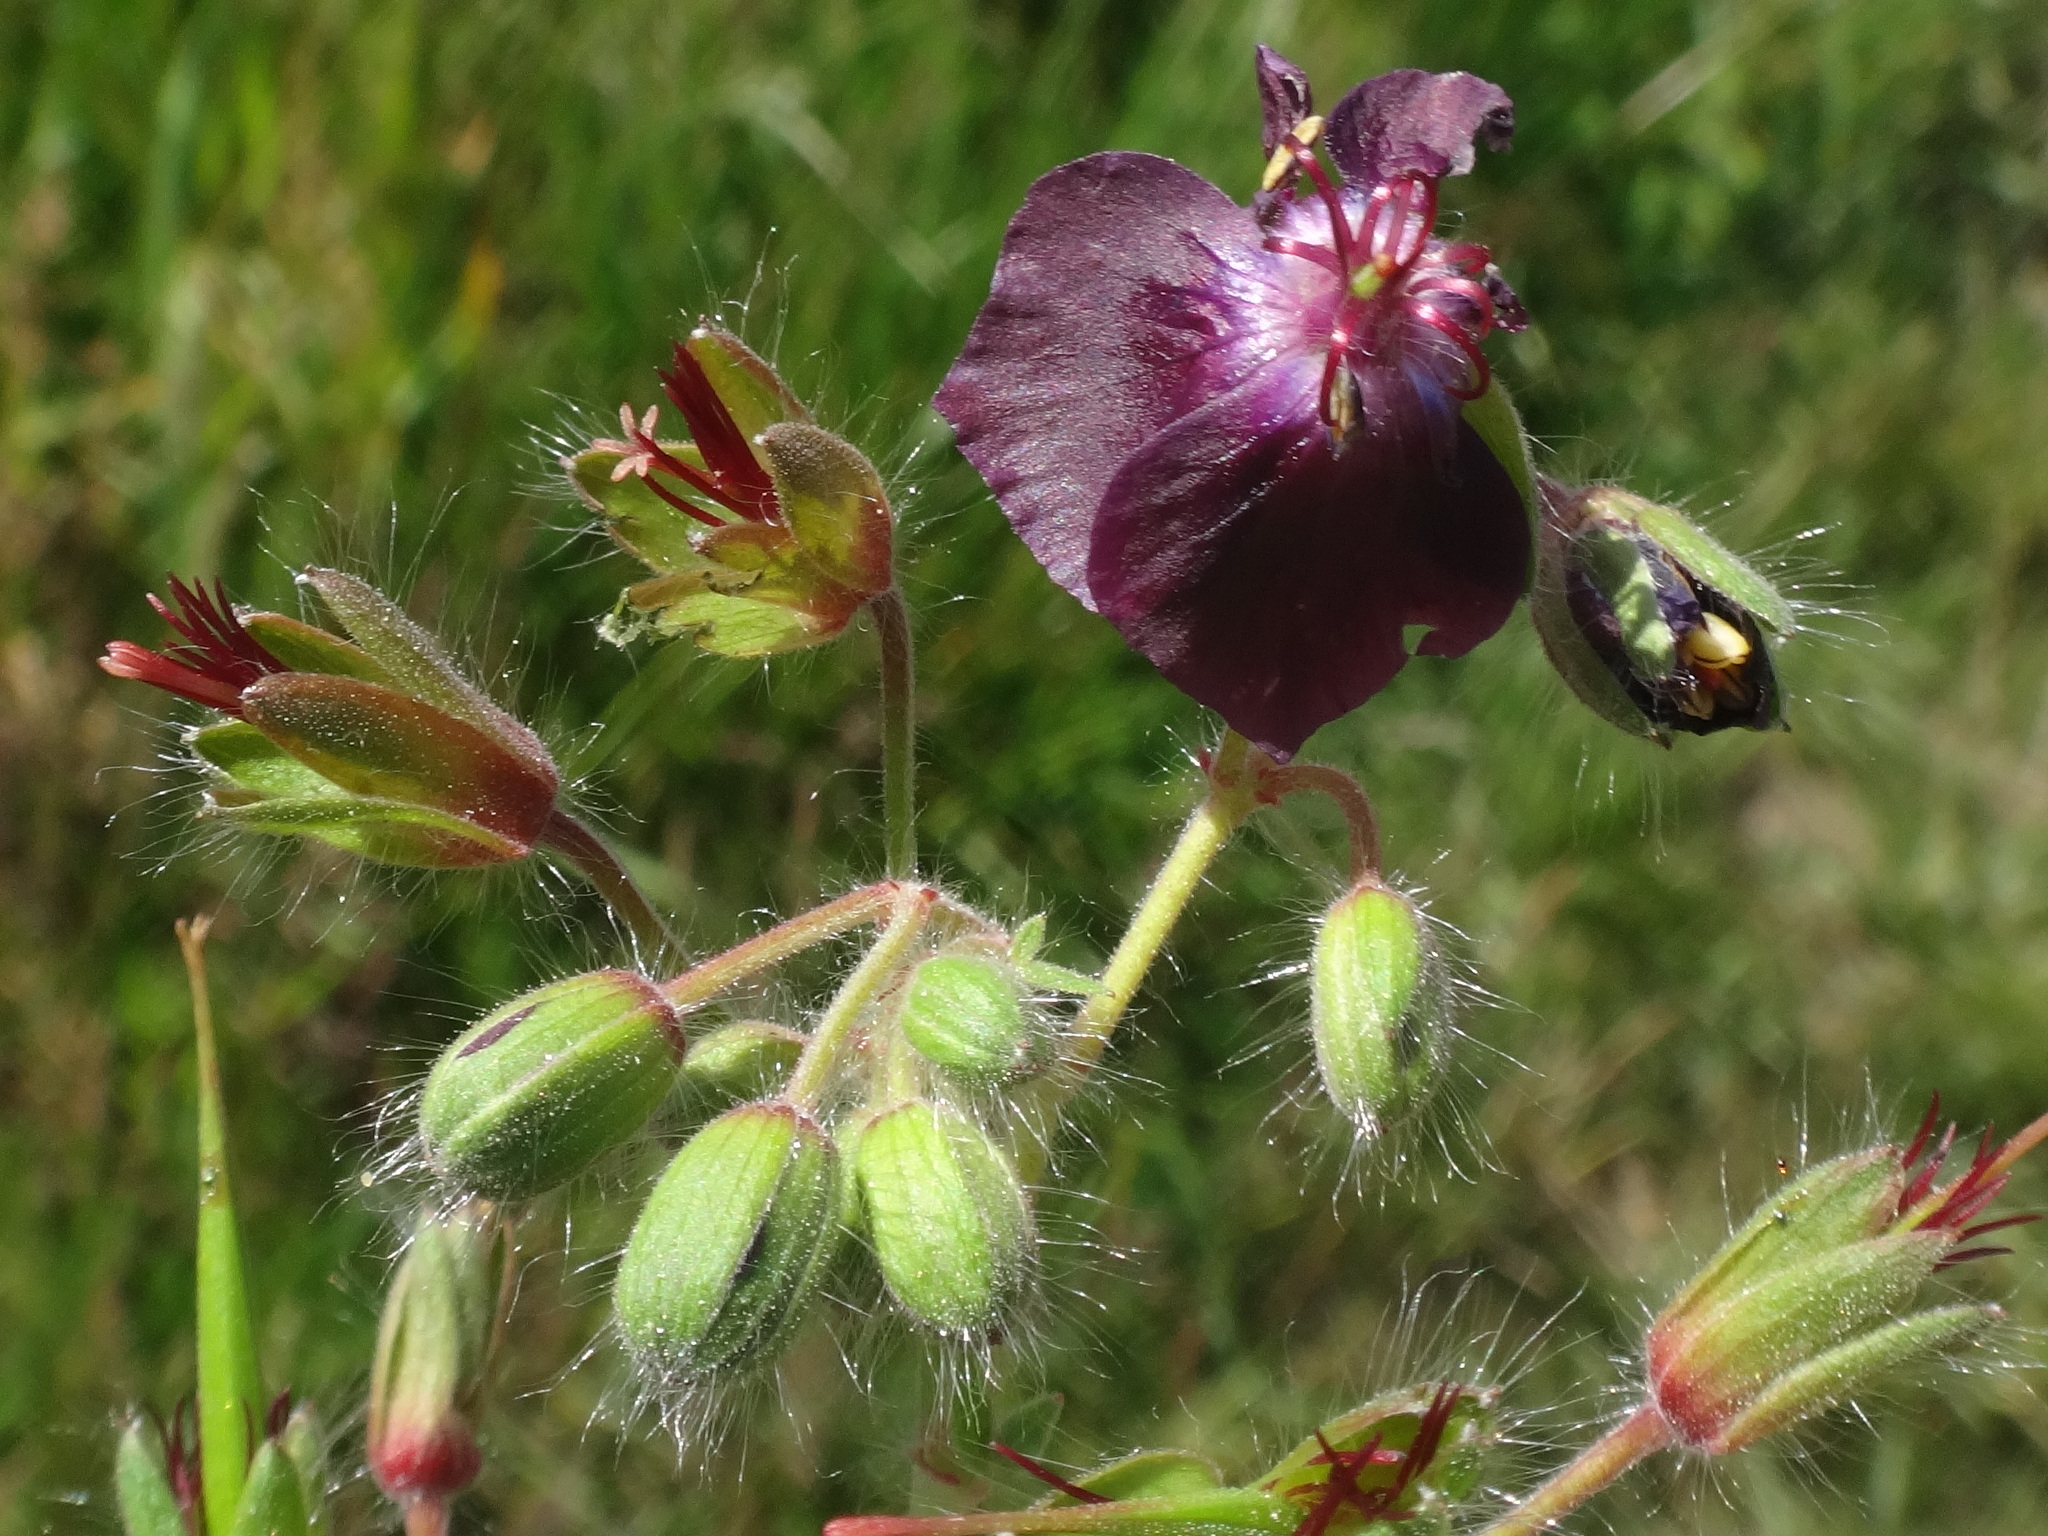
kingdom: Plantae
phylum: Tracheophyta
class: Magnoliopsida
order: Geraniales
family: Geraniaceae
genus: Geranium
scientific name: Geranium phaeum
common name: Dusky crane's-bill
